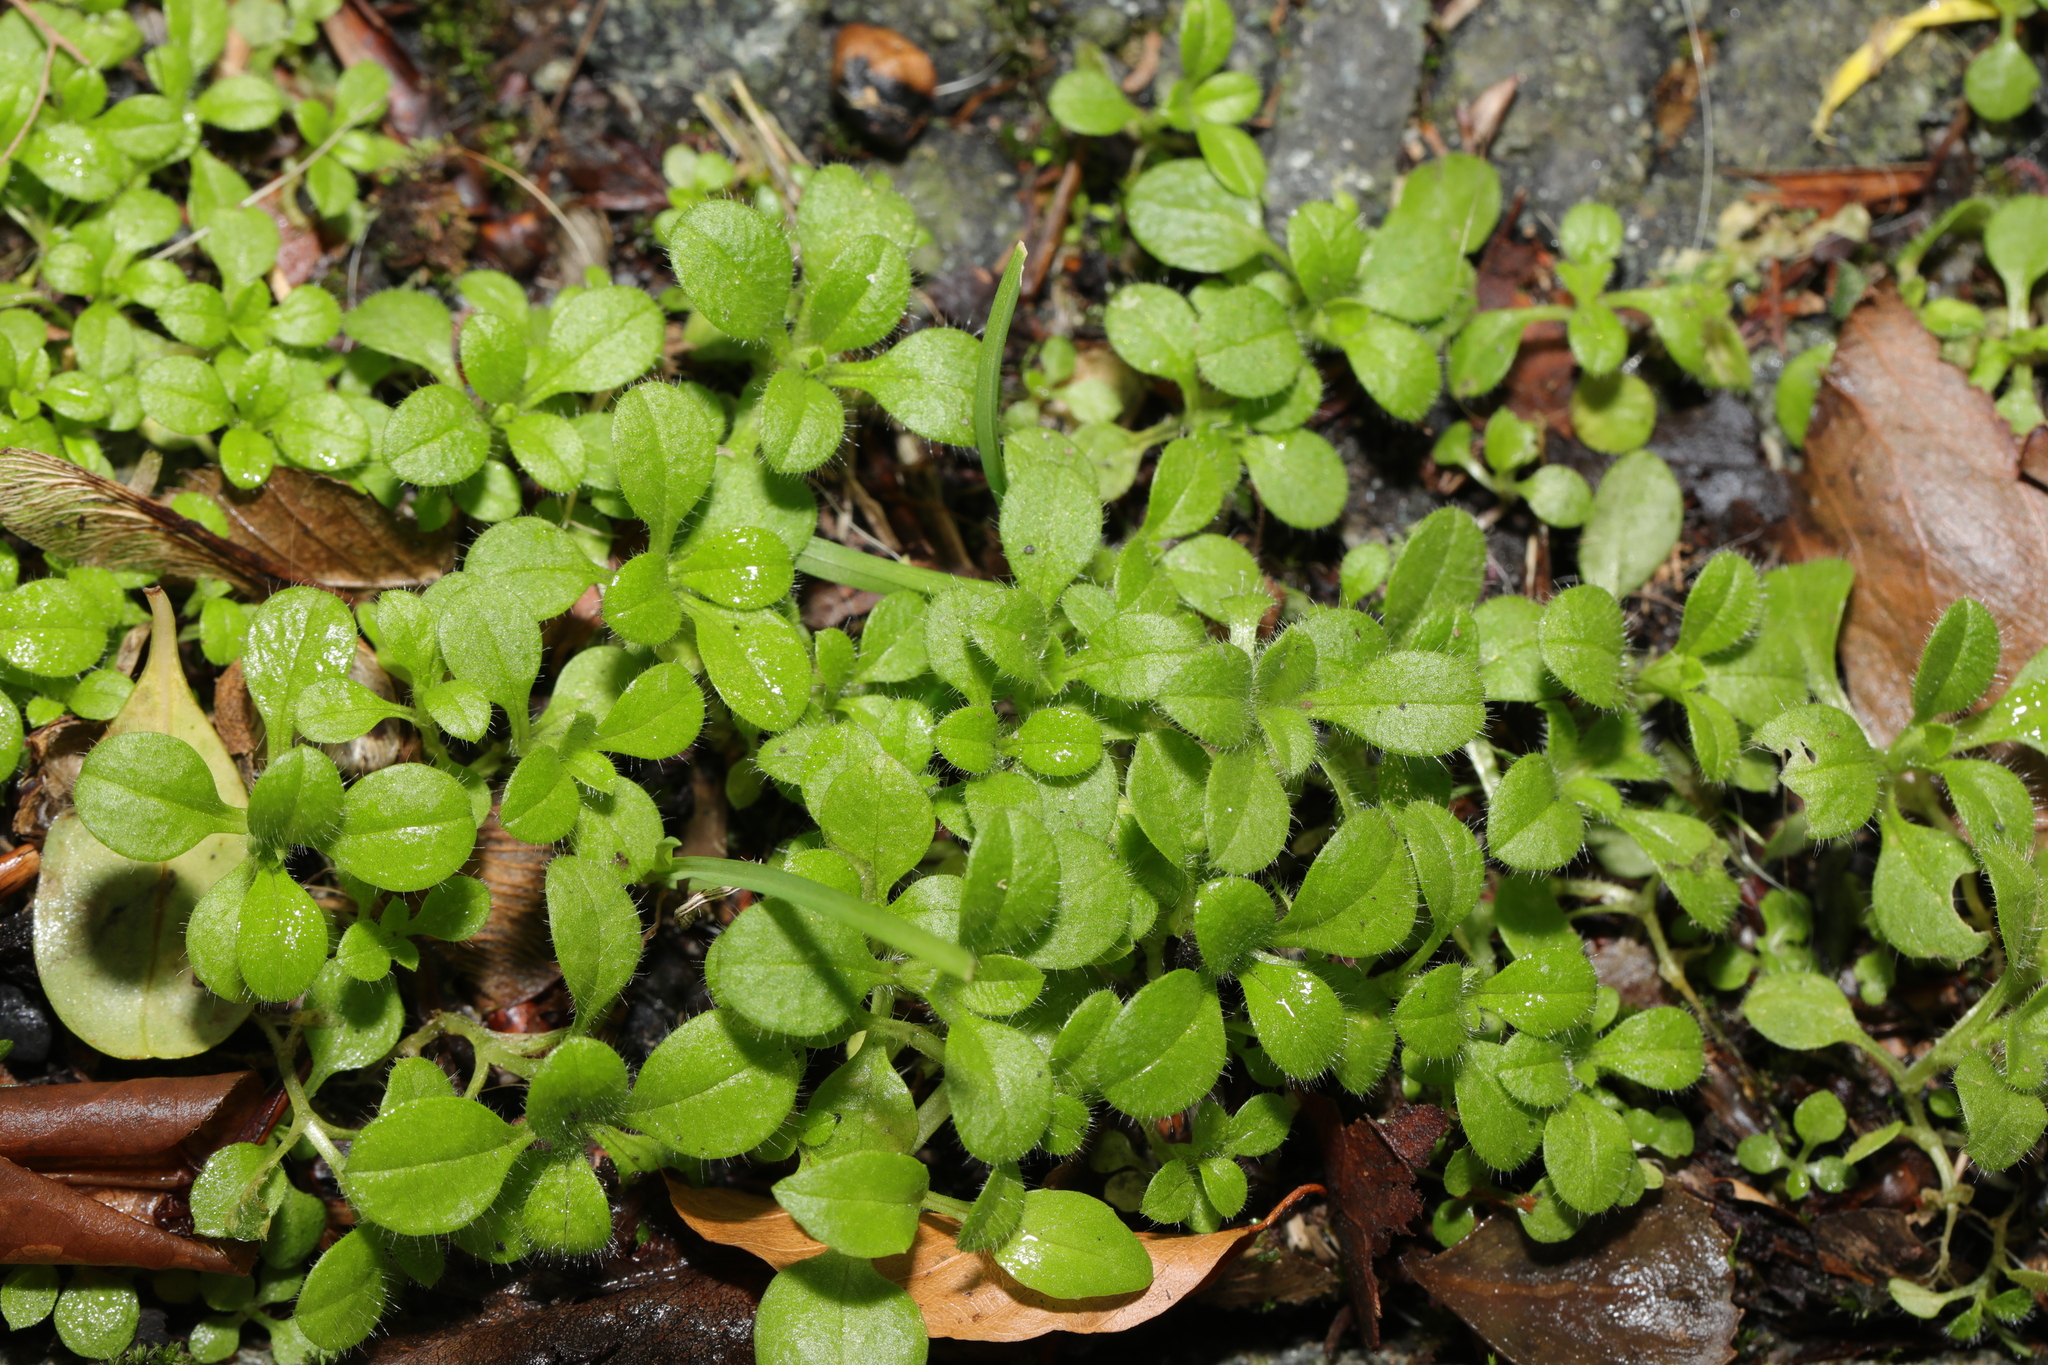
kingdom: Plantae
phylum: Tracheophyta
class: Magnoliopsida
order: Caryophyllales
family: Caryophyllaceae
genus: Cerastium
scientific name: Cerastium glomeratum
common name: Sticky chickweed
